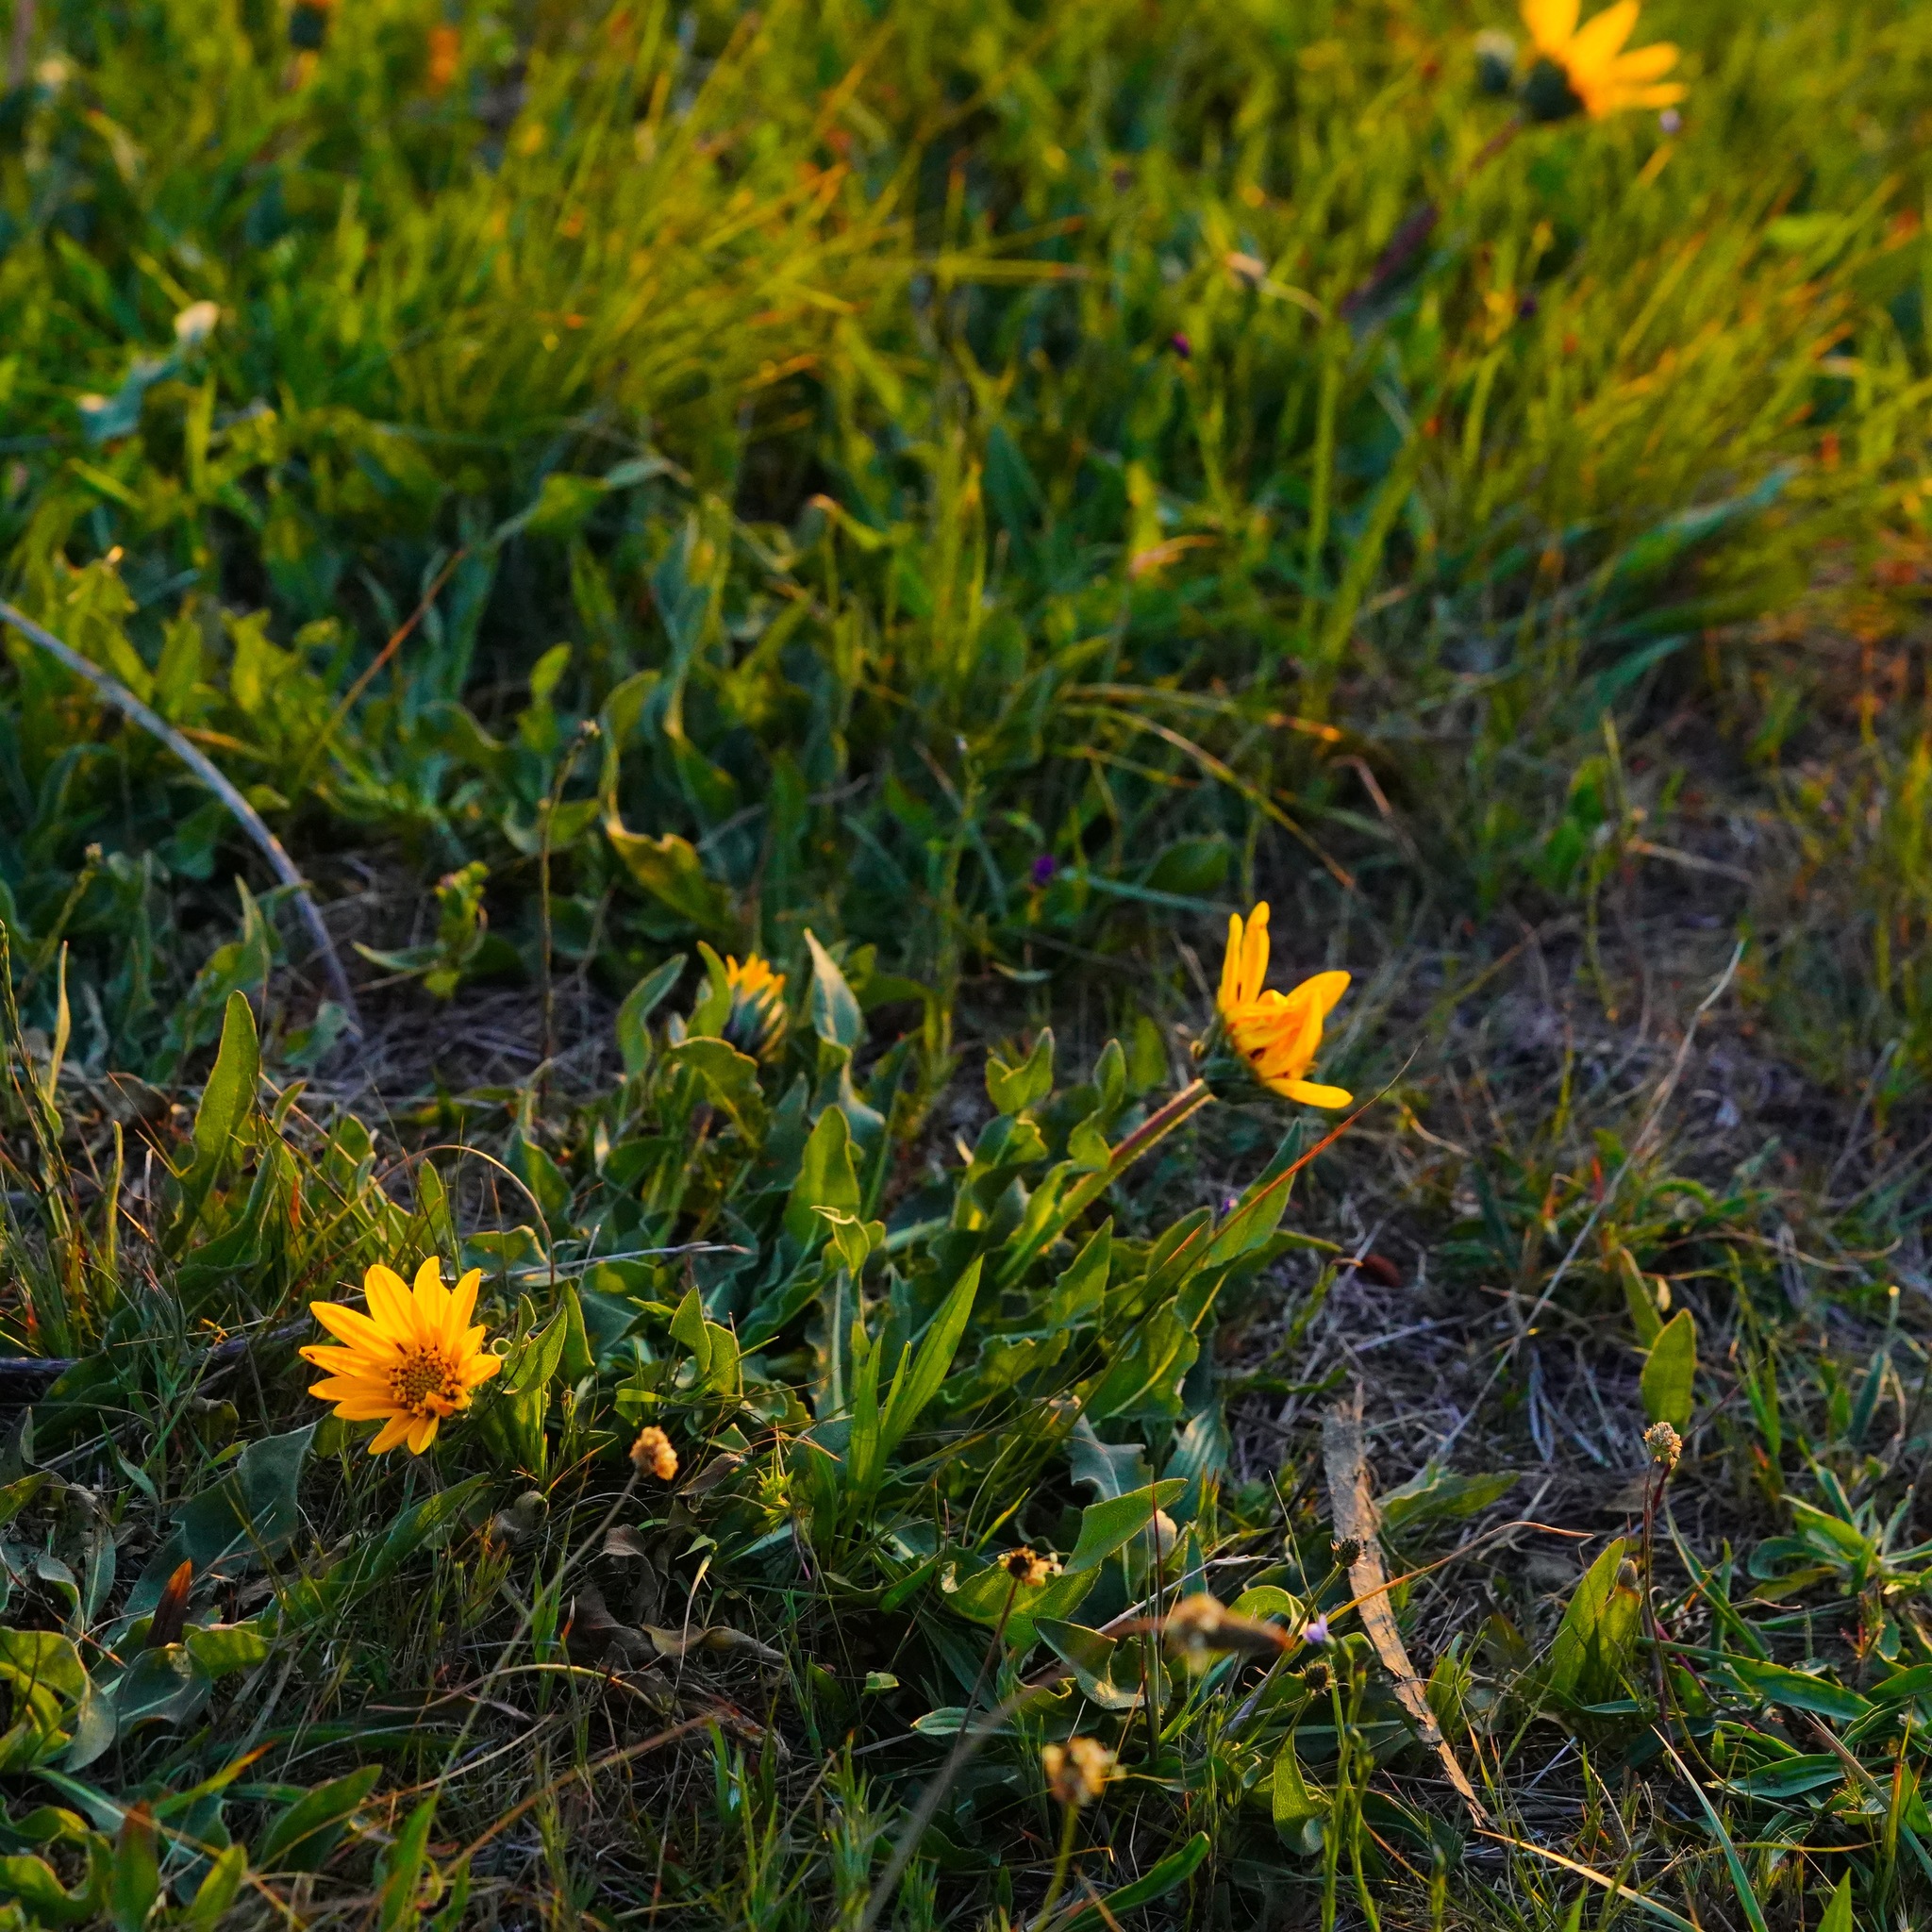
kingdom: Plantae
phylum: Tracheophyta
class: Magnoliopsida
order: Asterales
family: Asteraceae
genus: Wyethia
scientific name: Wyethia angustifolia
